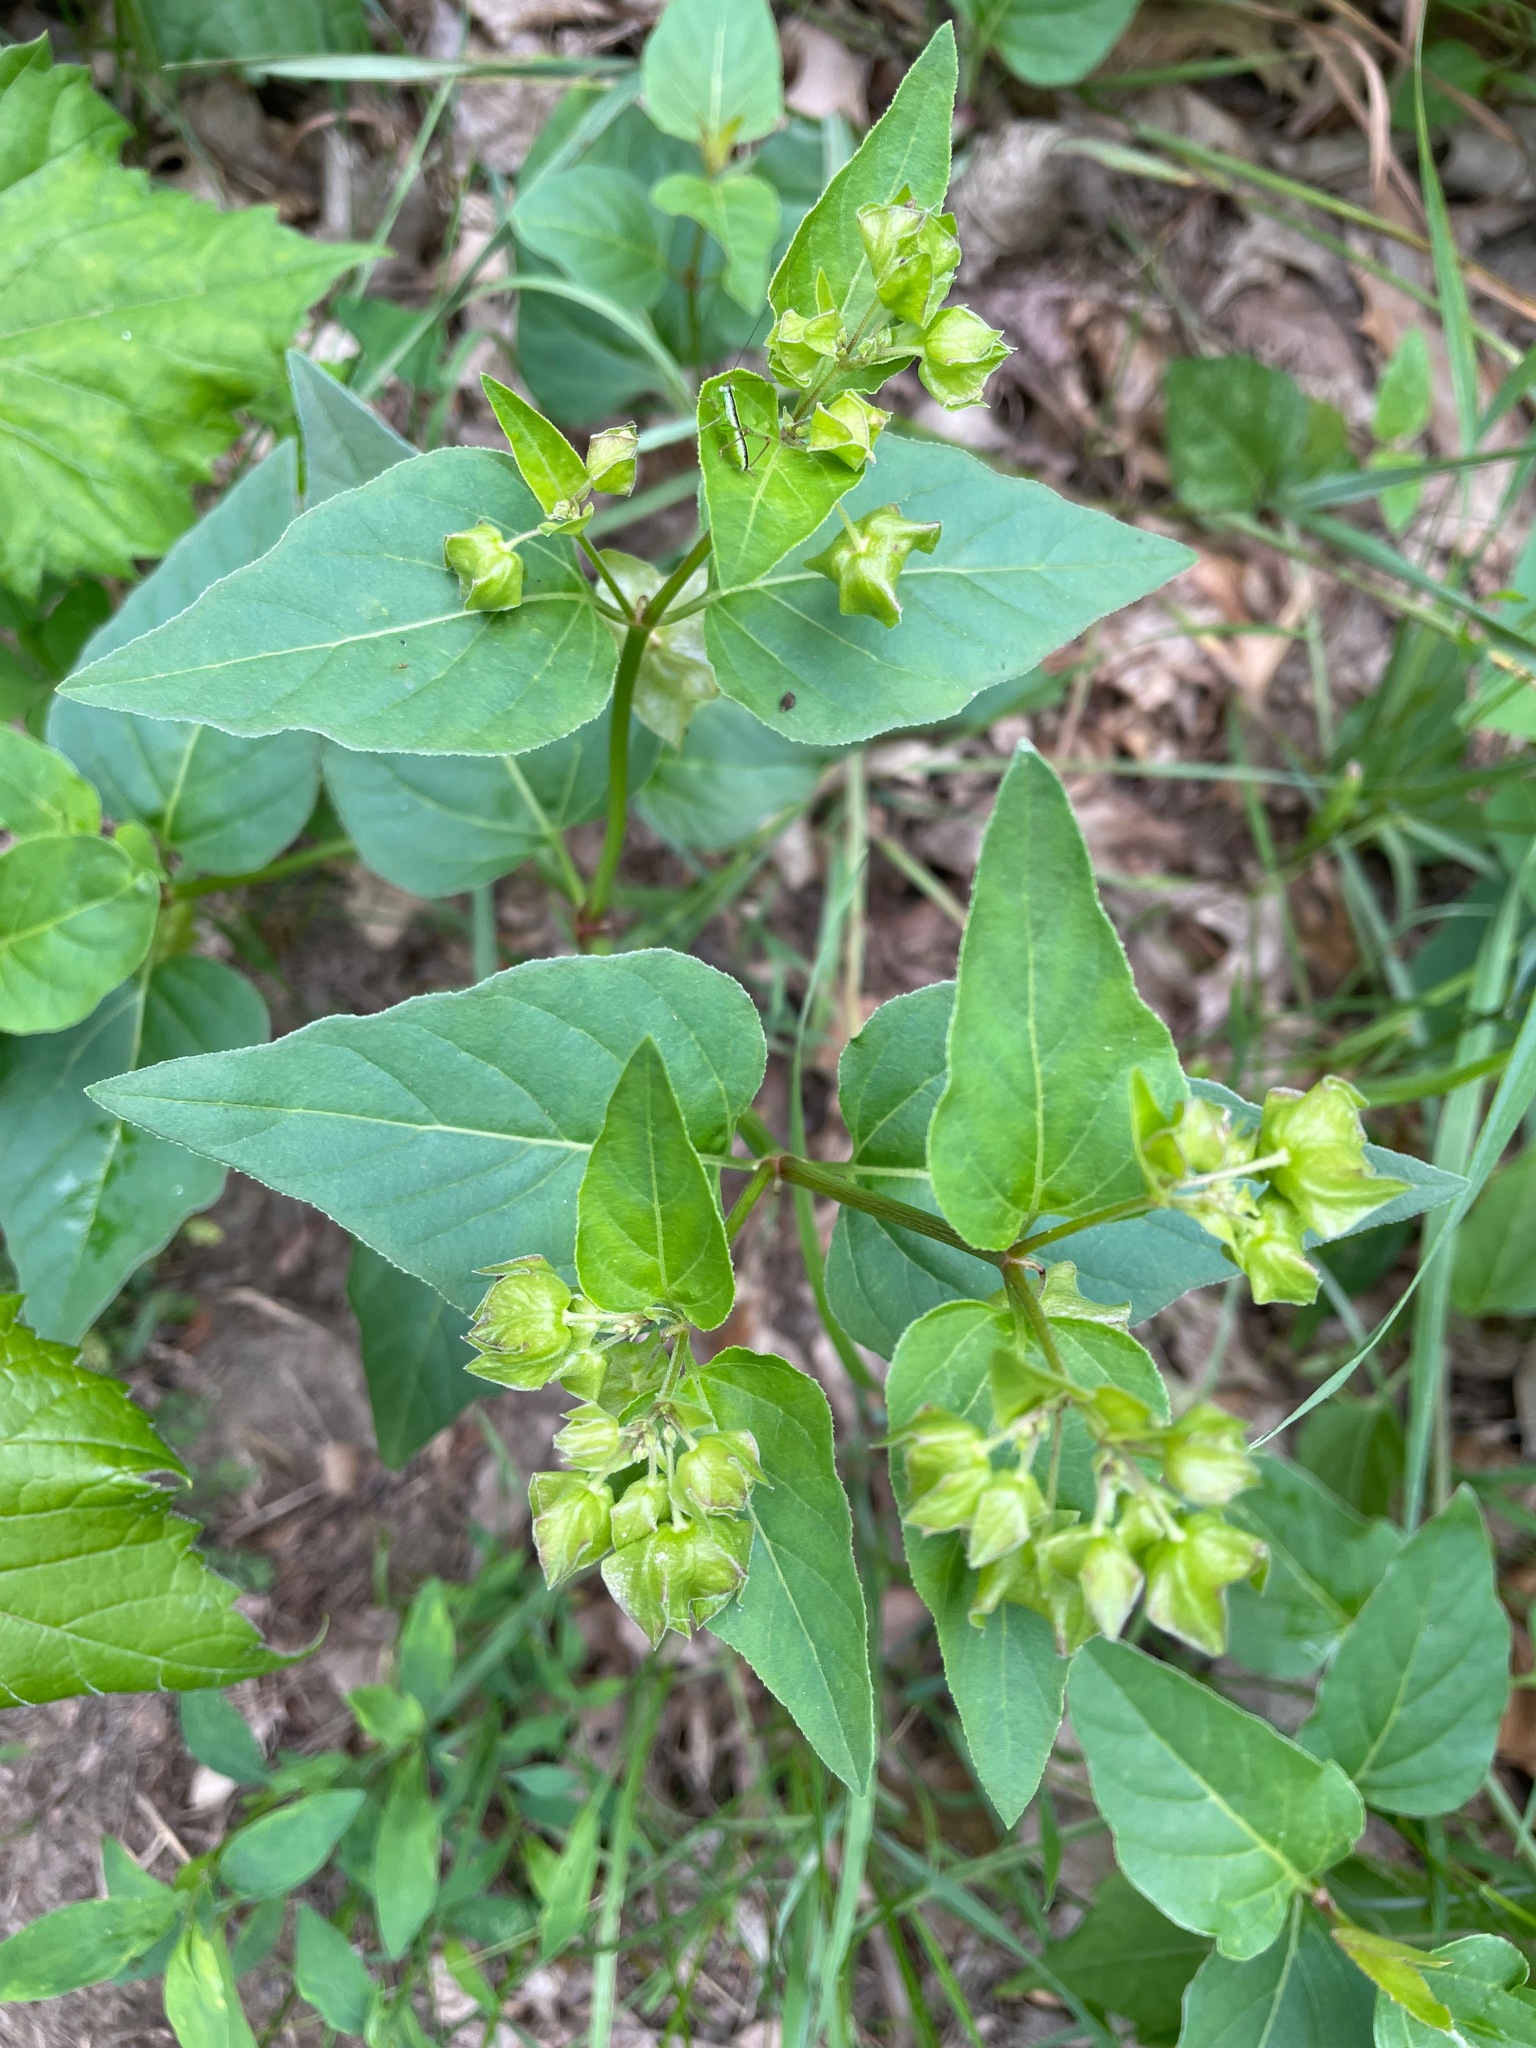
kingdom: Plantae
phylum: Tracheophyta
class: Magnoliopsida
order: Caryophyllales
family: Nyctaginaceae
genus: Mirabilis
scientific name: Mirabilis nyctaginea
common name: Umbrella wort
